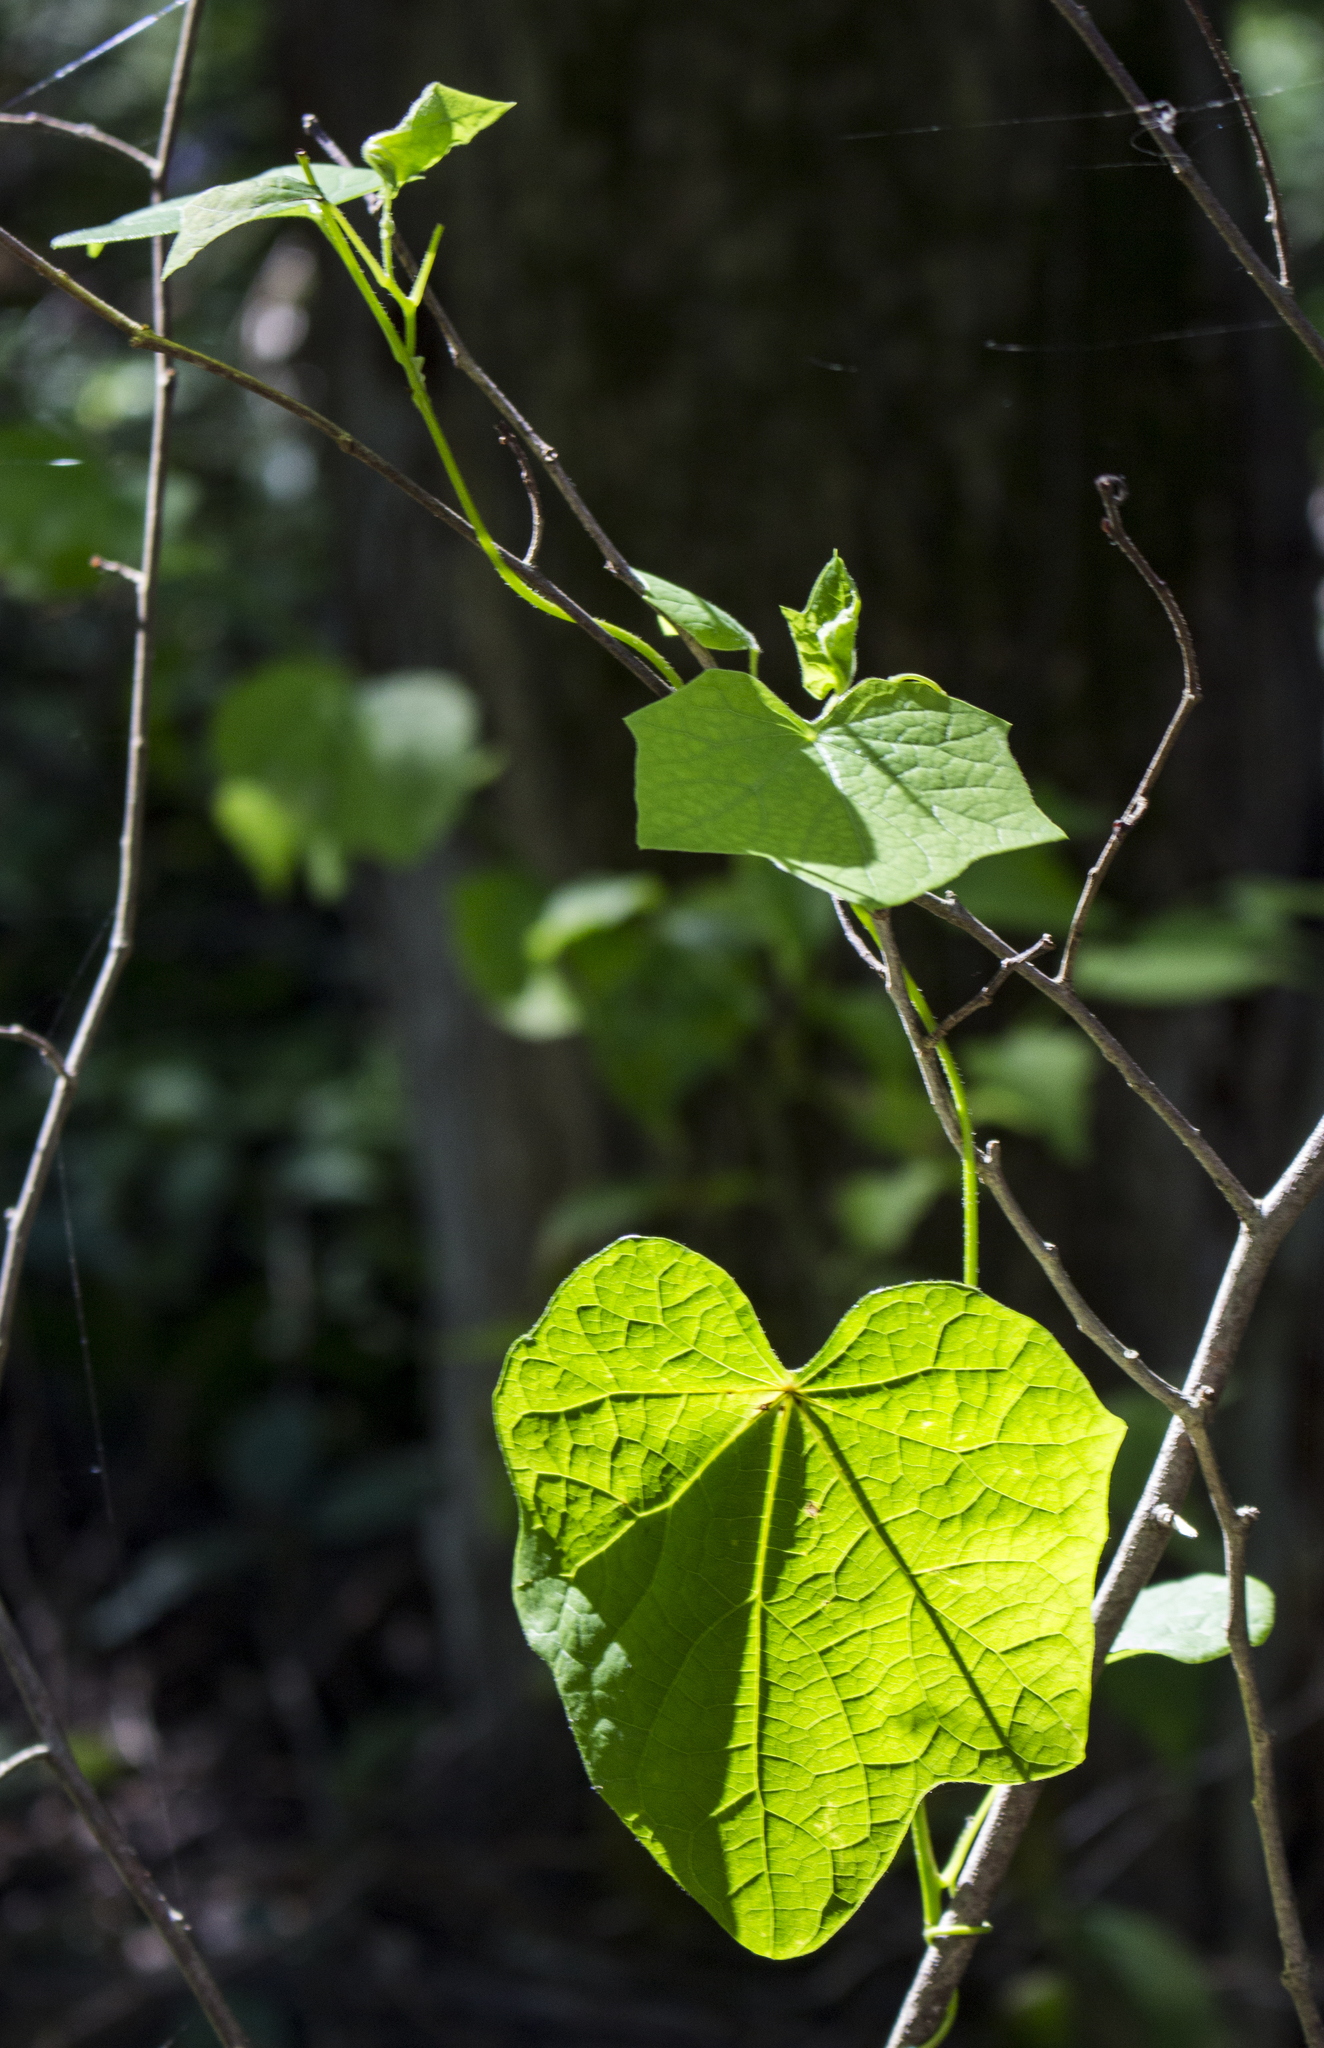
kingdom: Plantae
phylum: Tracheophyta
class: Magnoliopsida
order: Ranunculales
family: Menispermaceae
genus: Menispermum
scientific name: Menispermum canadense
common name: Moonseed
